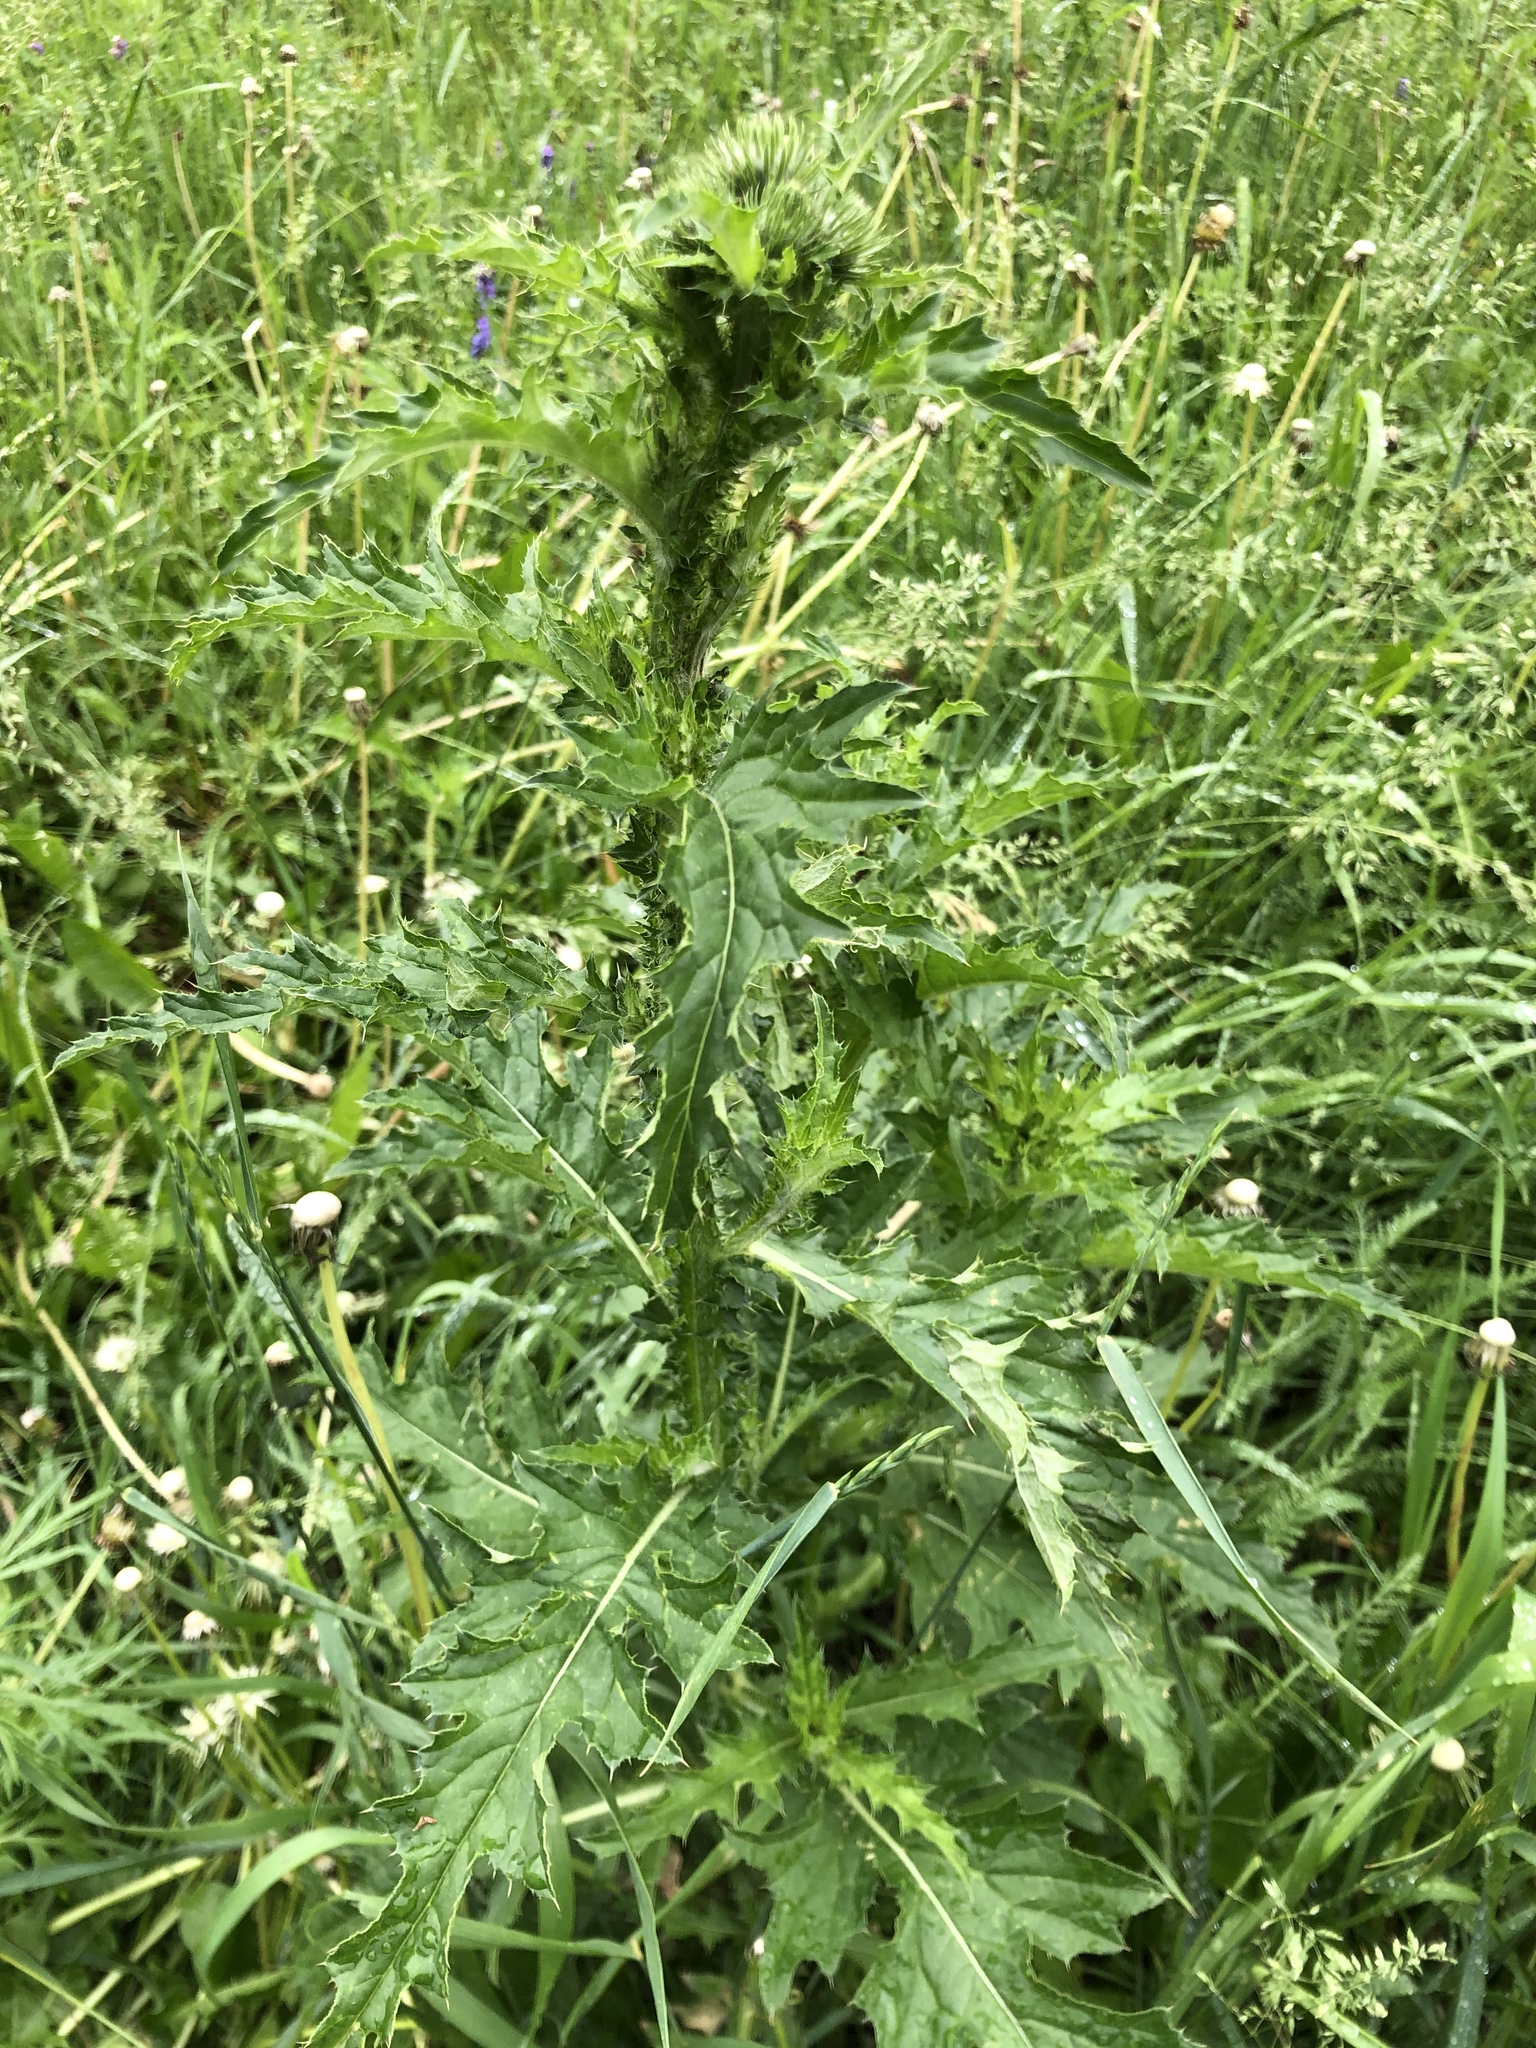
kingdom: Plantae
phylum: Tracheophyta
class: Magnoliopsida
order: Asterales
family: Asteraceae
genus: Carduus
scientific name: Carduus crispus
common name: Welted thistle
